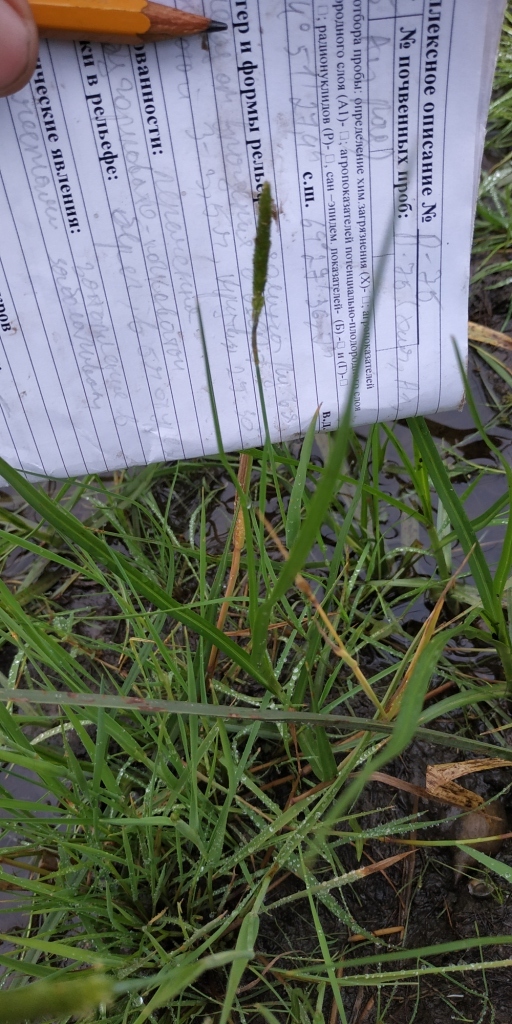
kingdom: Plantae
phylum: Tracheophyta
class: Liliopsida
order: Poales
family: Poaceae
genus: Alopecurus
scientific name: Alopecurus aequalis
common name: Orange foxtail
